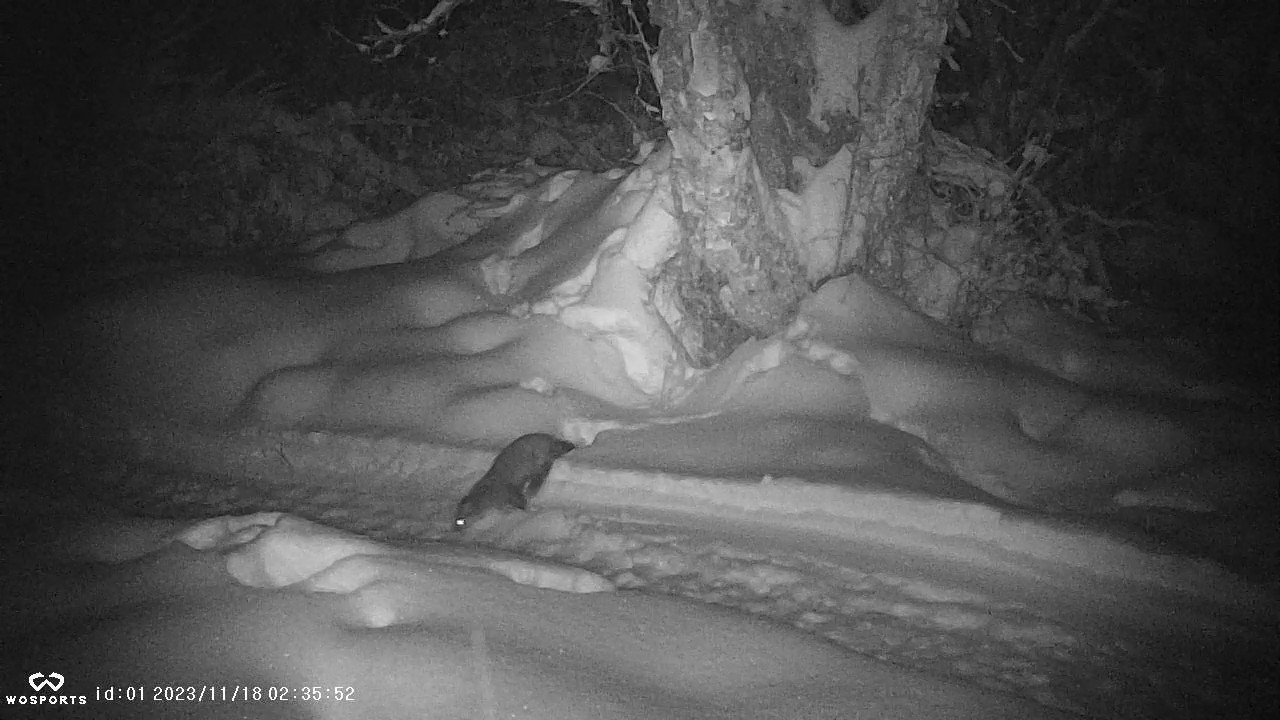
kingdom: Animalia
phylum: Chordata
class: Mammalia
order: Carnivora
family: Mustelidae
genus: Martes
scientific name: Martes americana
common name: American marten
